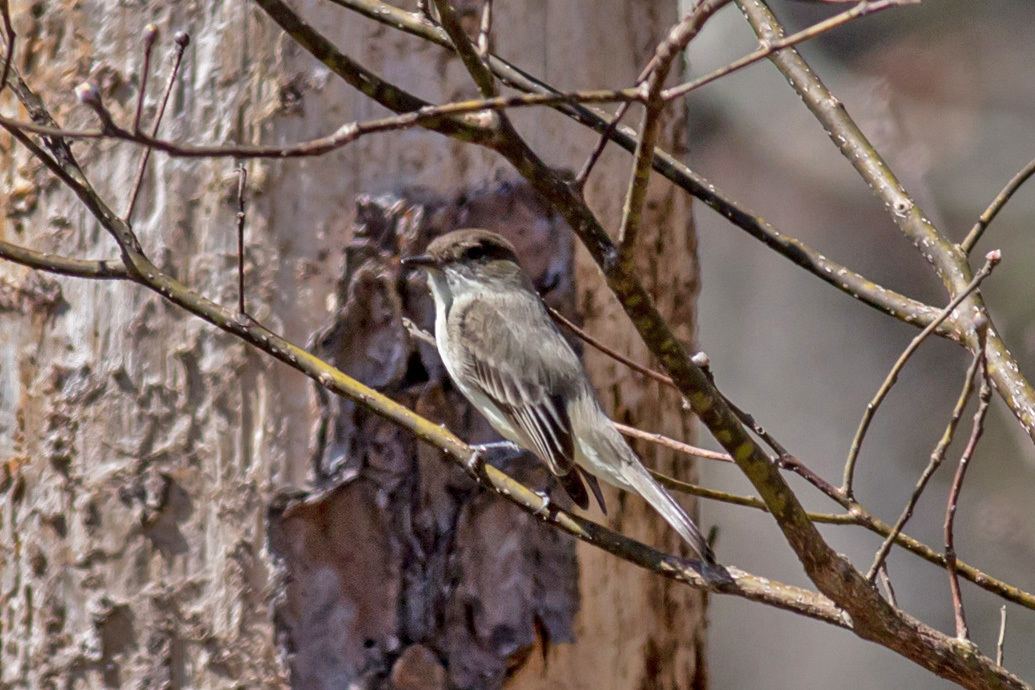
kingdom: Animalia
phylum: Chordata
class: Aves
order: Passeriformes
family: Tyrannidae
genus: Sayornis
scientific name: Sayornis phoebe
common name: Eastern phoebe
